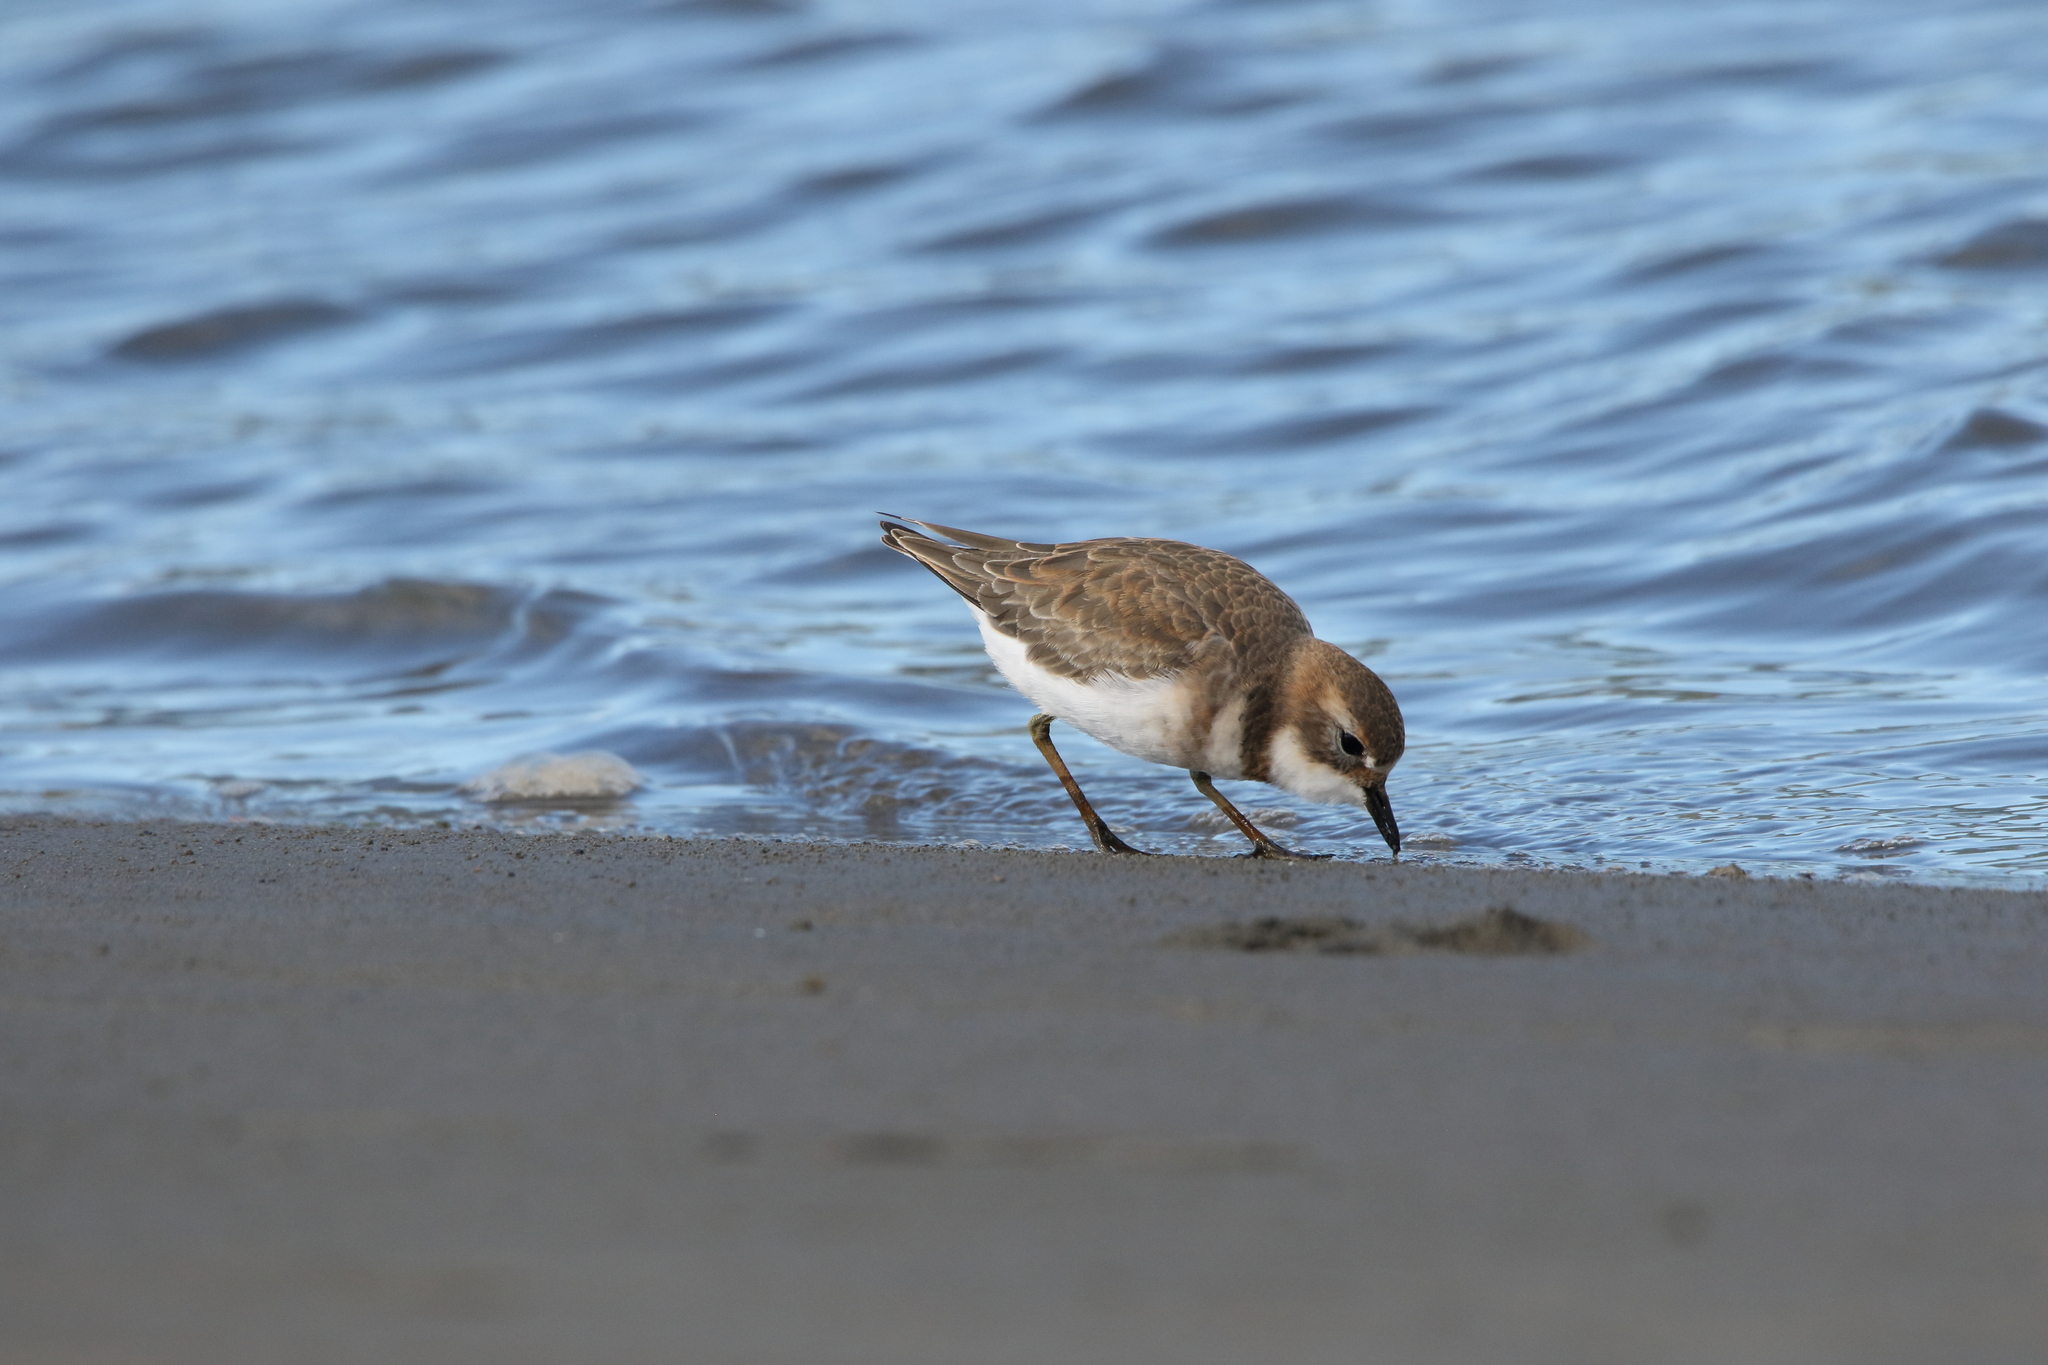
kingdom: Animalia
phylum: Chordata
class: Aves
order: Charadriiformes
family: Charadriidae
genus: Anarhynchus
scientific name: Anarhynchus
